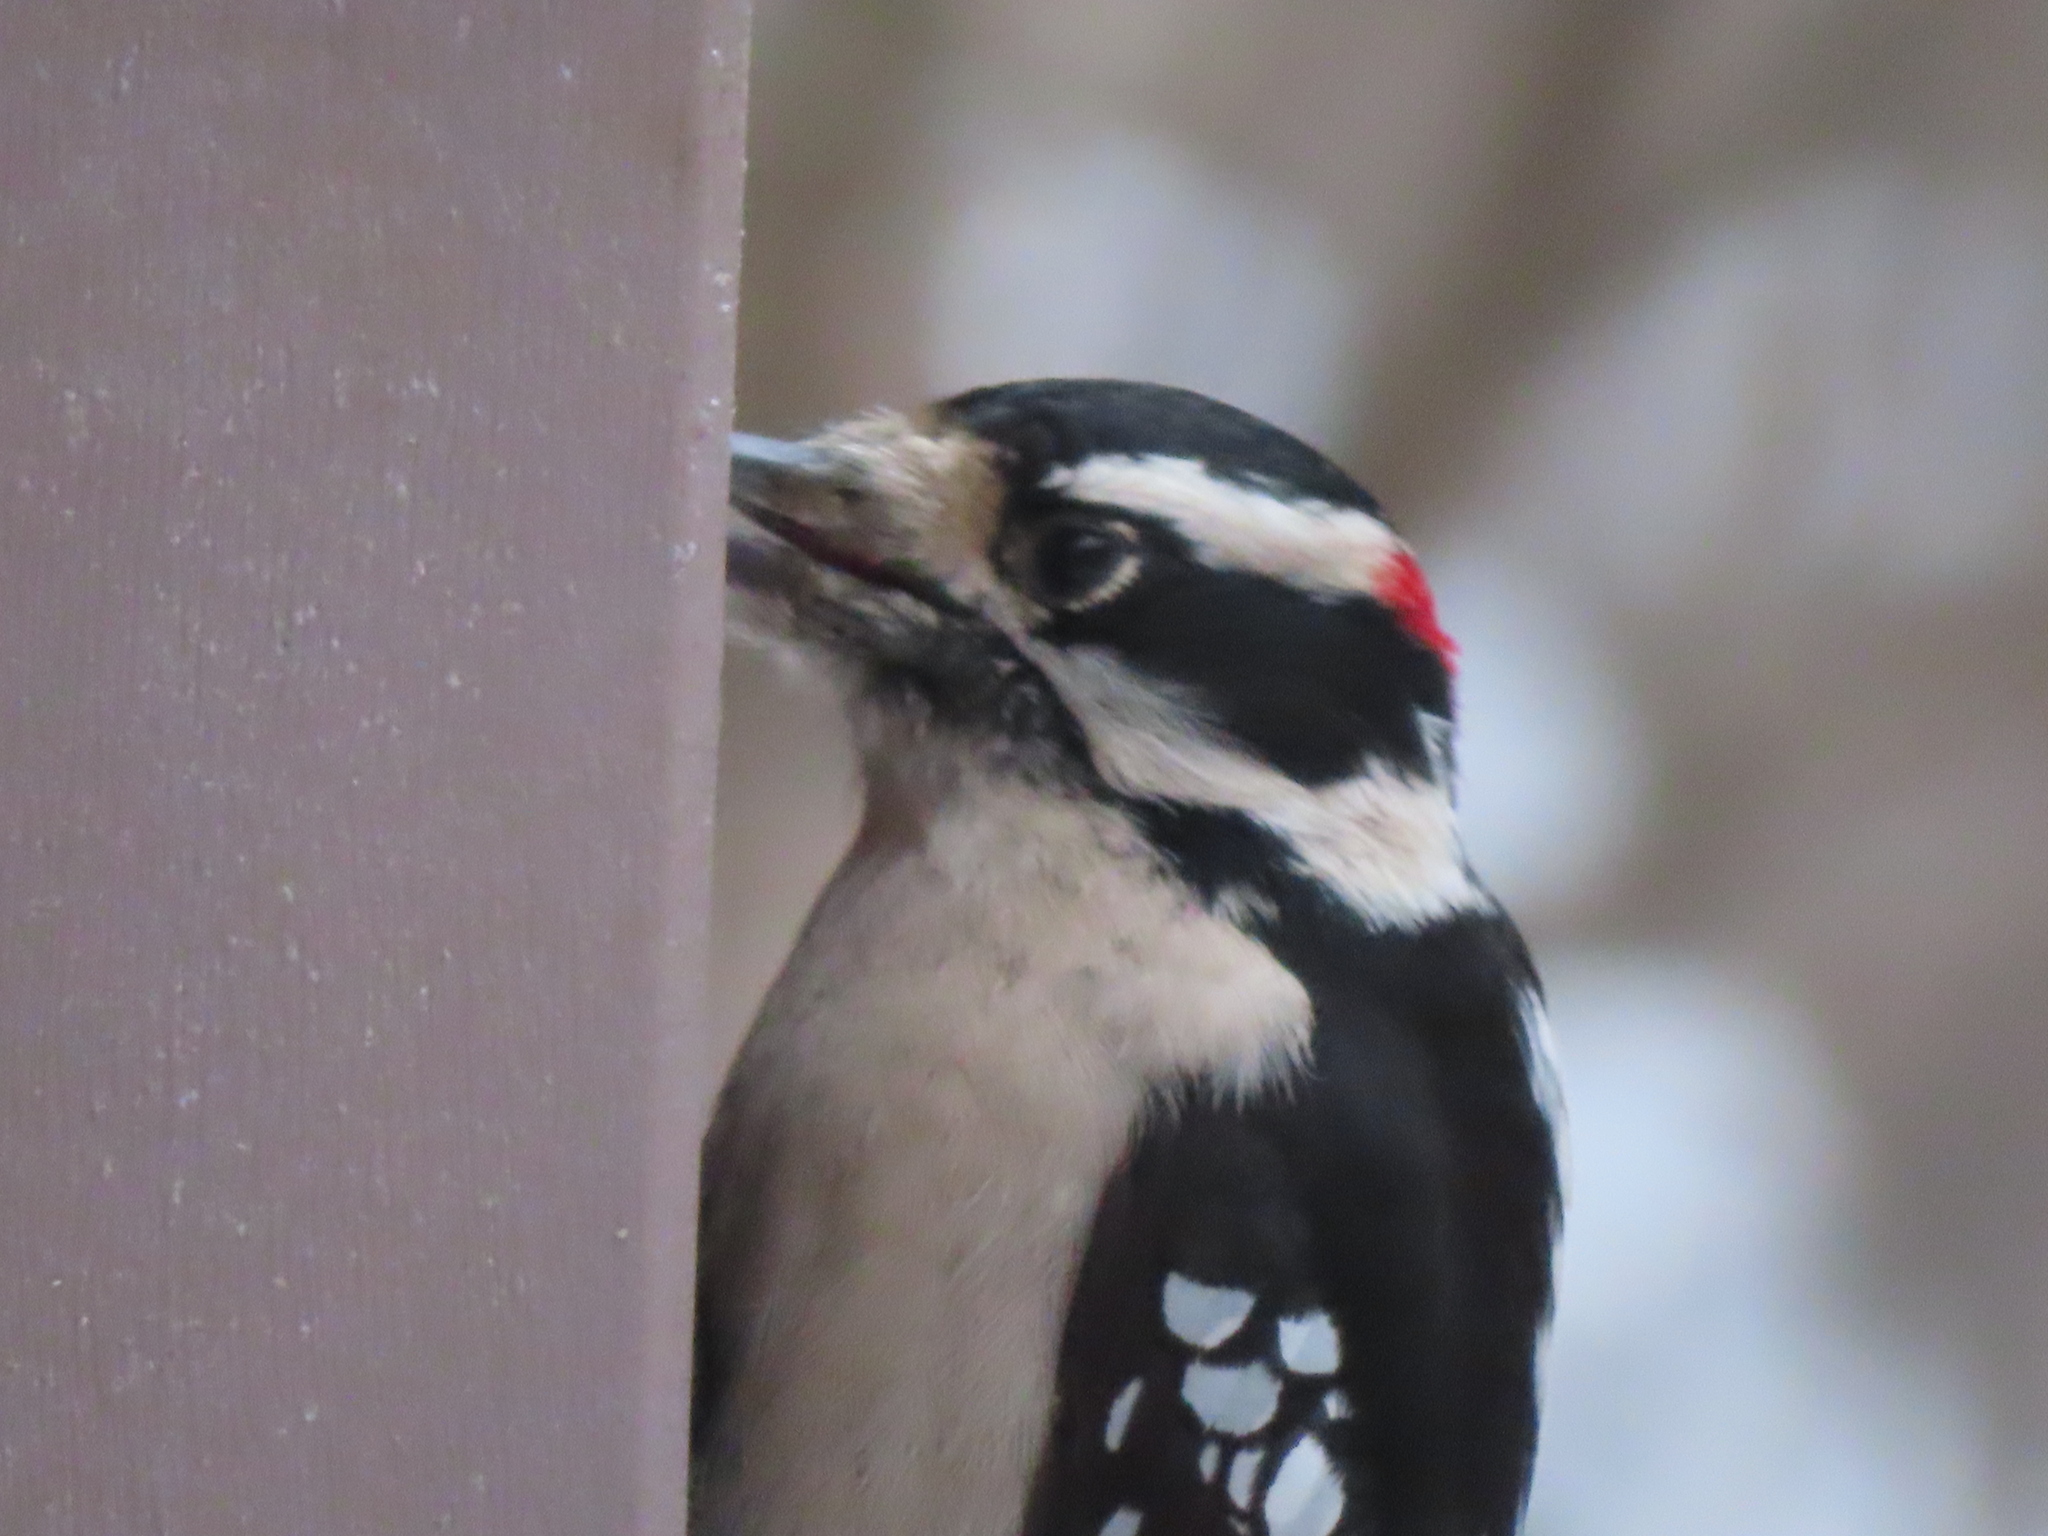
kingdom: Animalia
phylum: Chordata
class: Aves
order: Piciformes
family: Picidae
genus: Dryobates
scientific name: Dryobates pubescens
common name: Downy woodpecker
